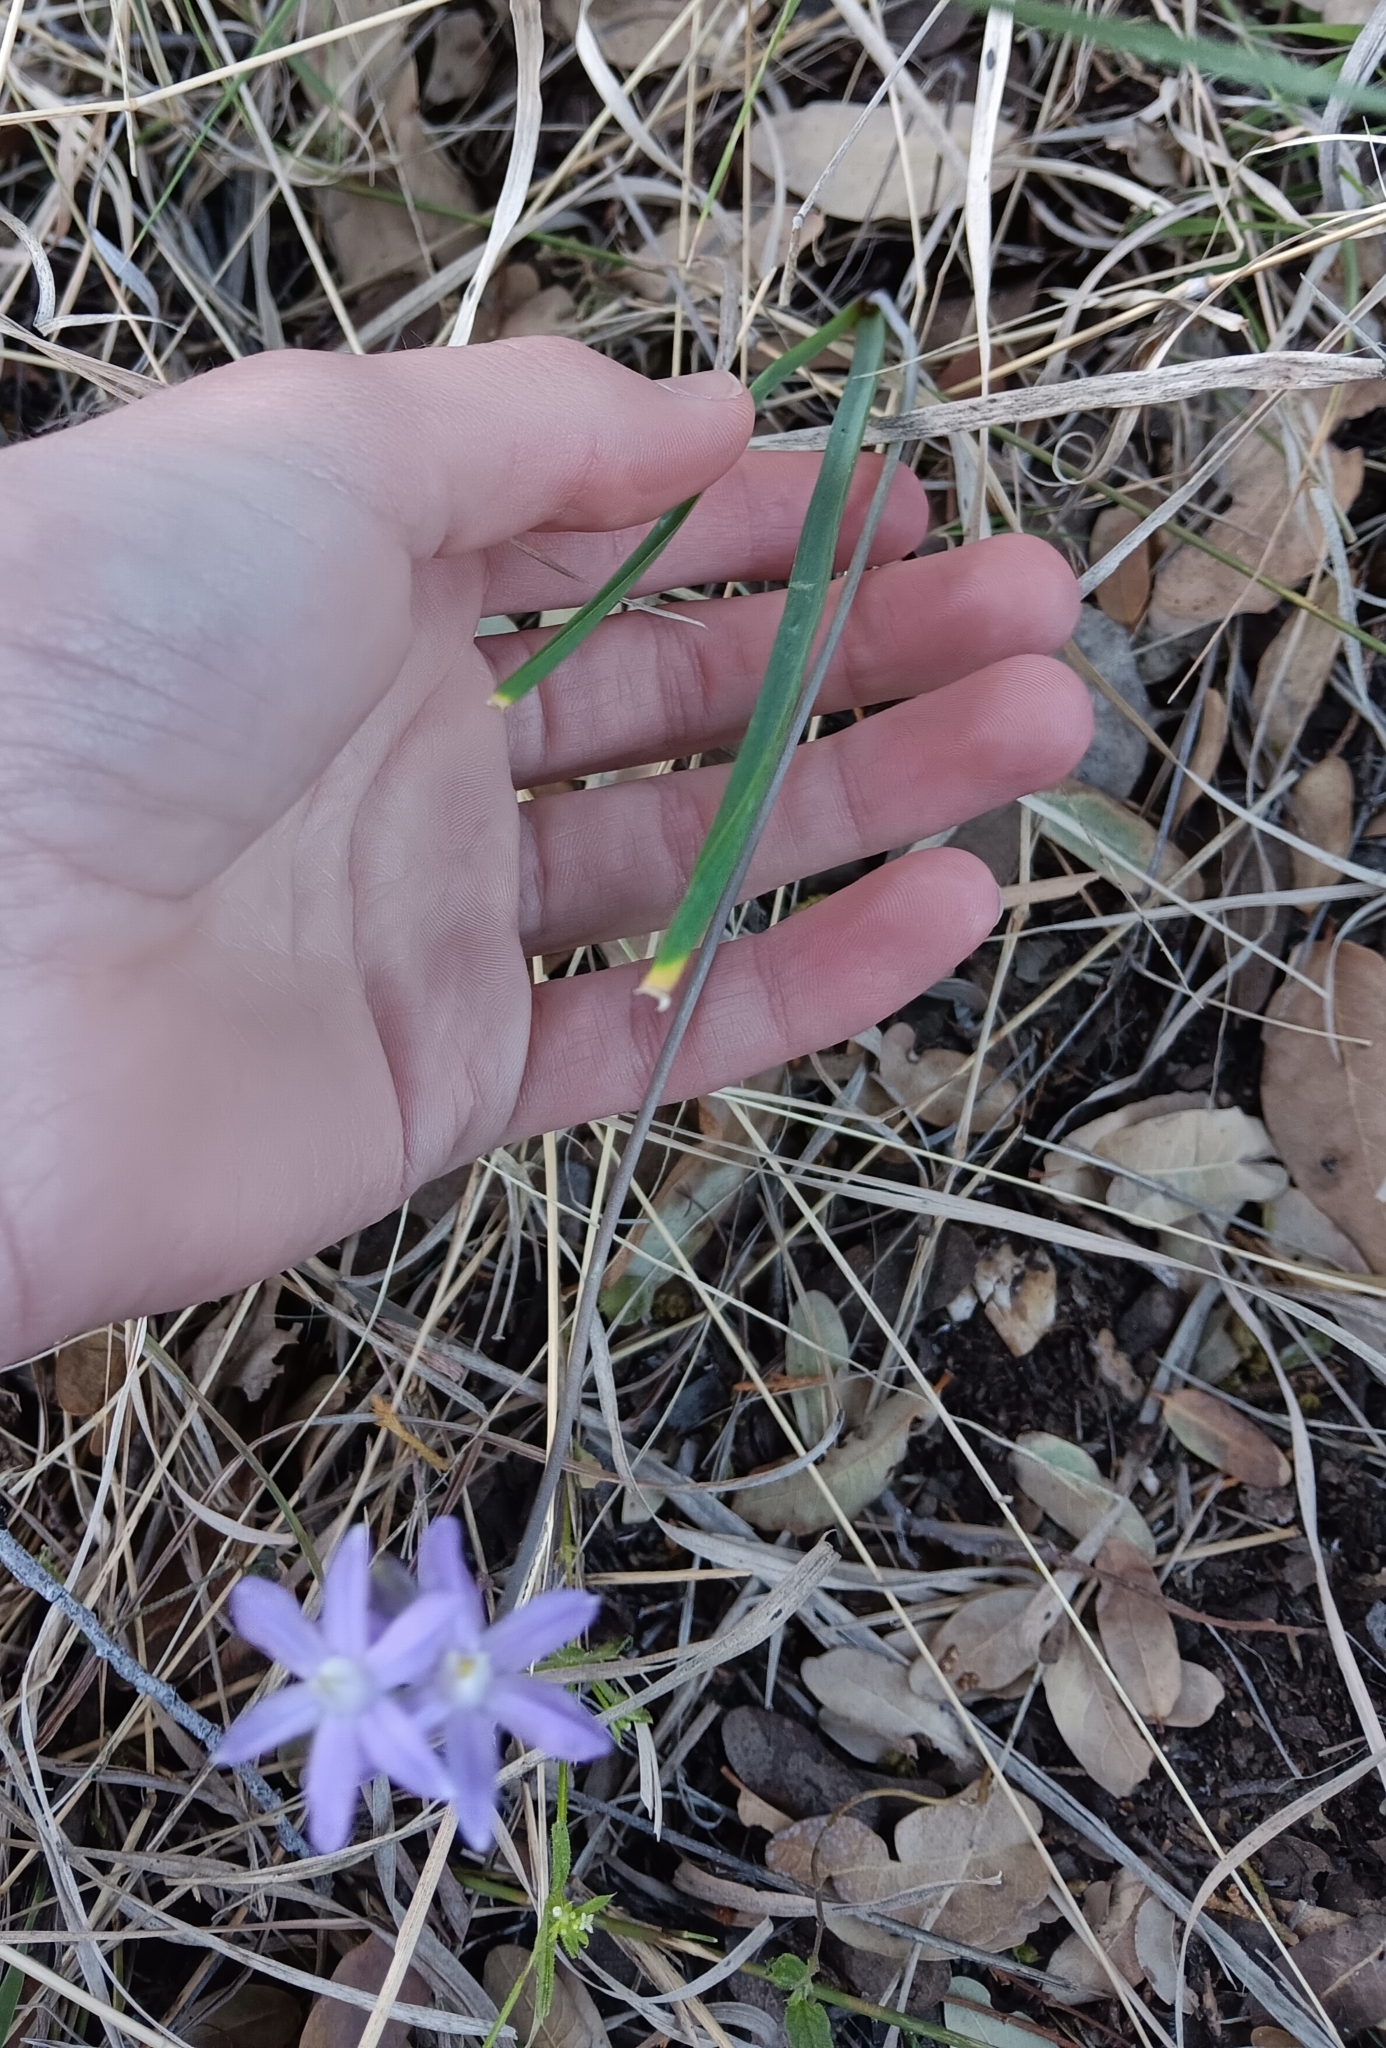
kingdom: Plantae
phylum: Tracheophyta
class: Liliopsida
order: Asparagales
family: Asparagaceae
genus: Dipterostemon
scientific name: Dipterostemon capitatus
